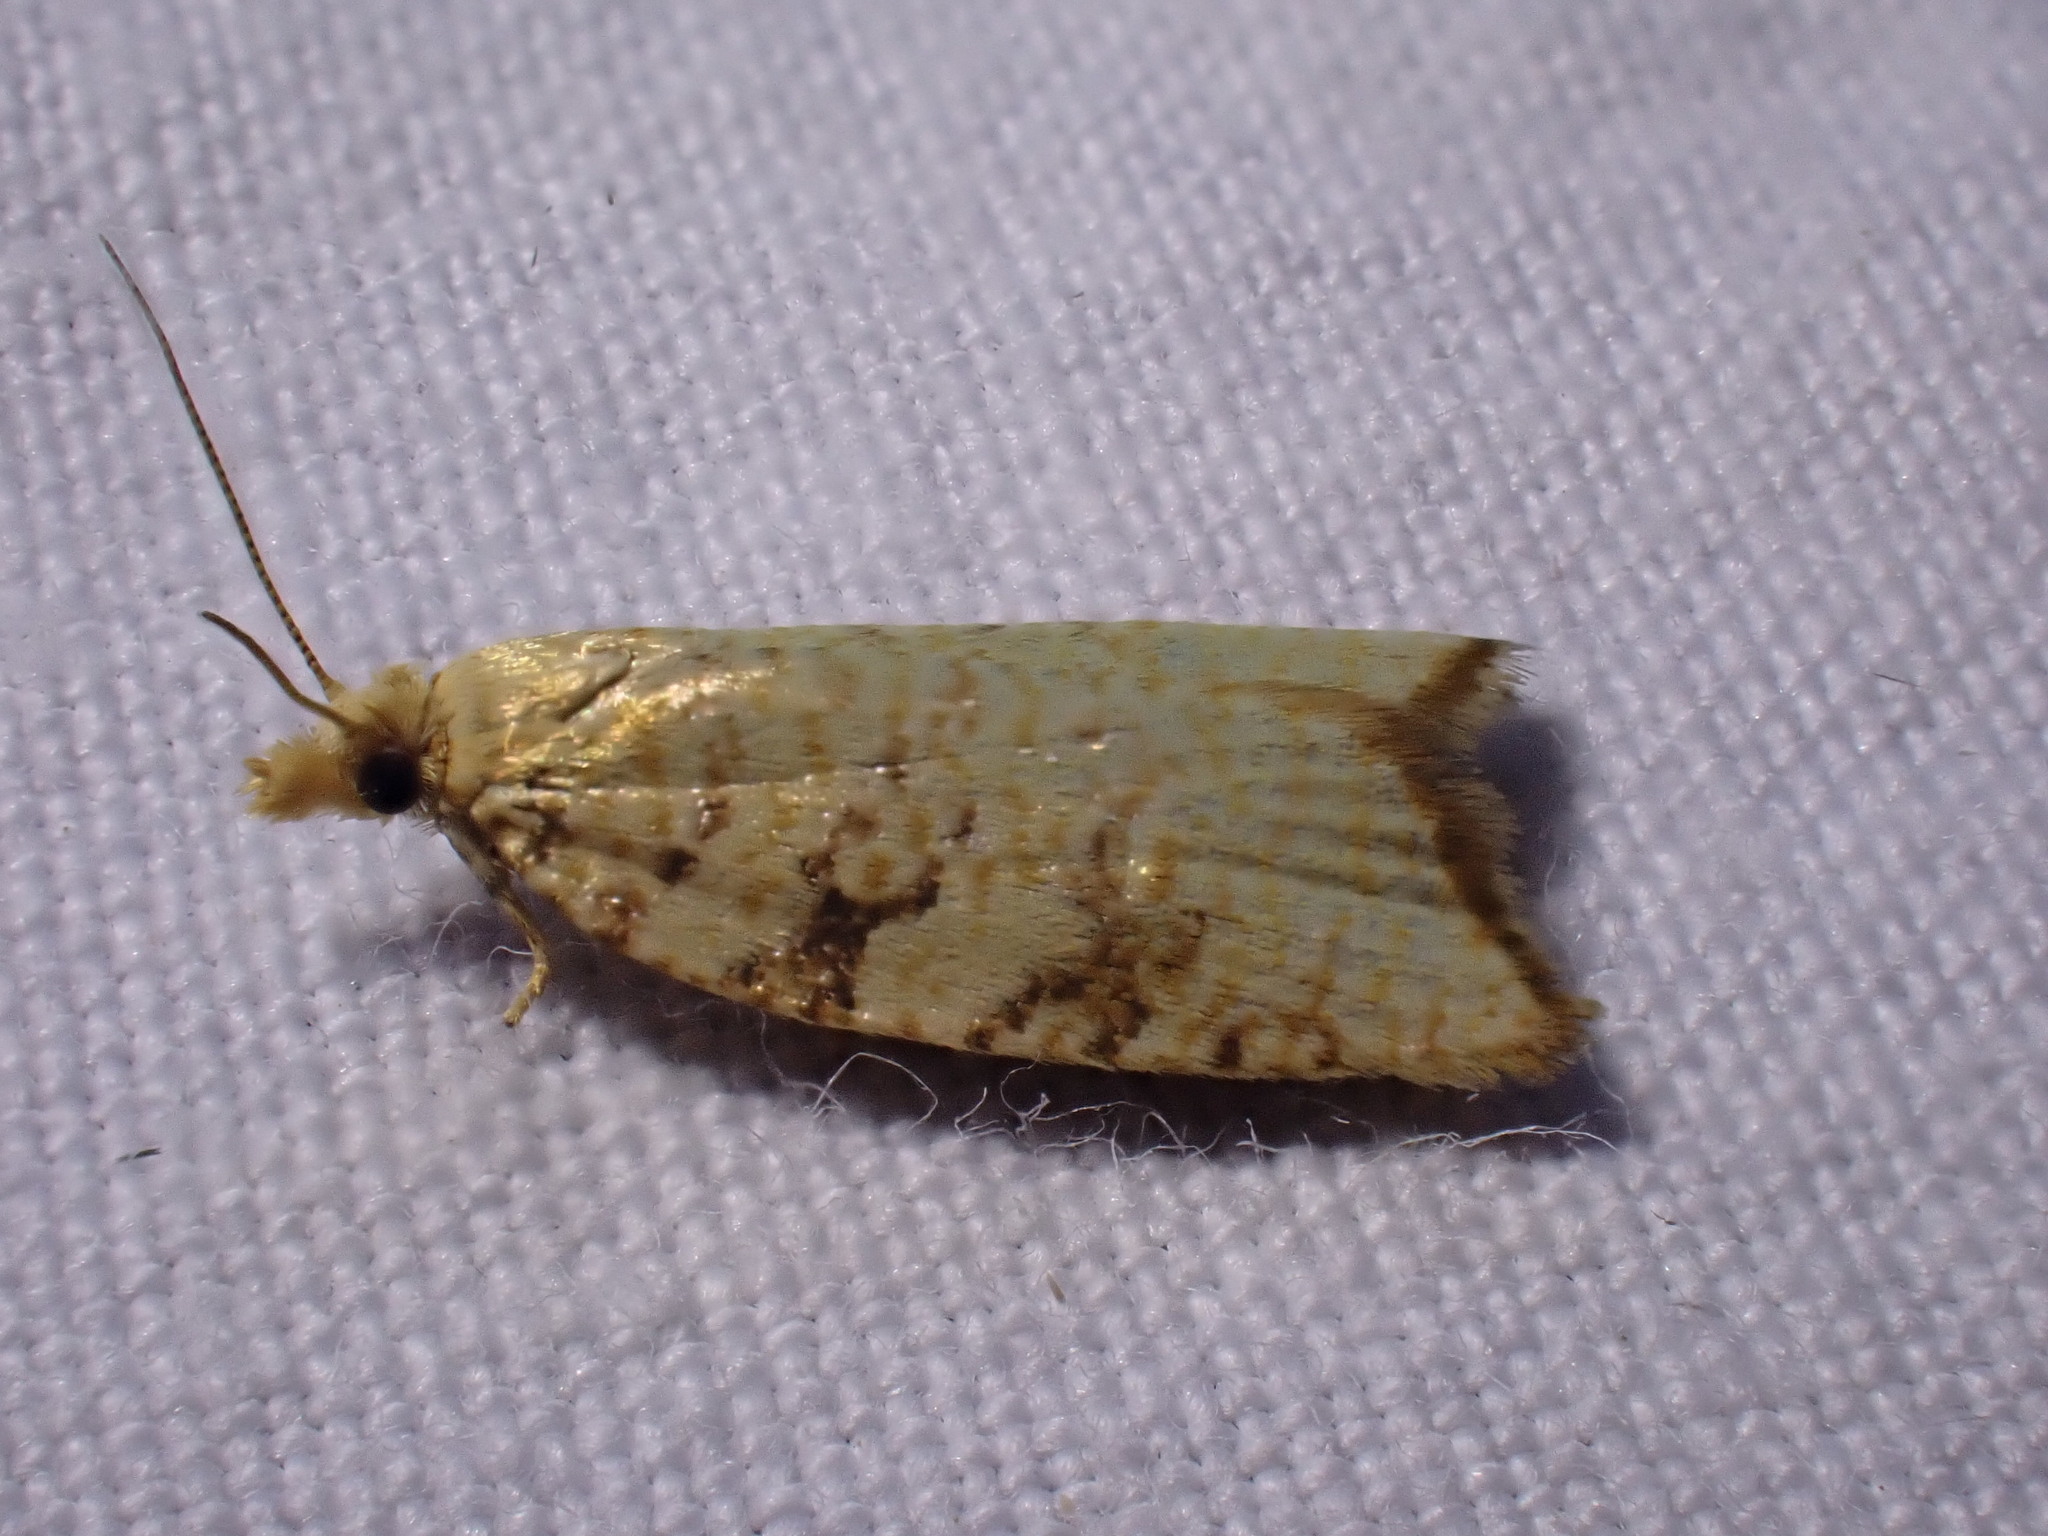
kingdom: Animalia
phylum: Arthropoda
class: Insecta
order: Lepidoptera
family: Tortricidae
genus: Aleimma
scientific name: Aleimma loeflingiana
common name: Yellow oak button
